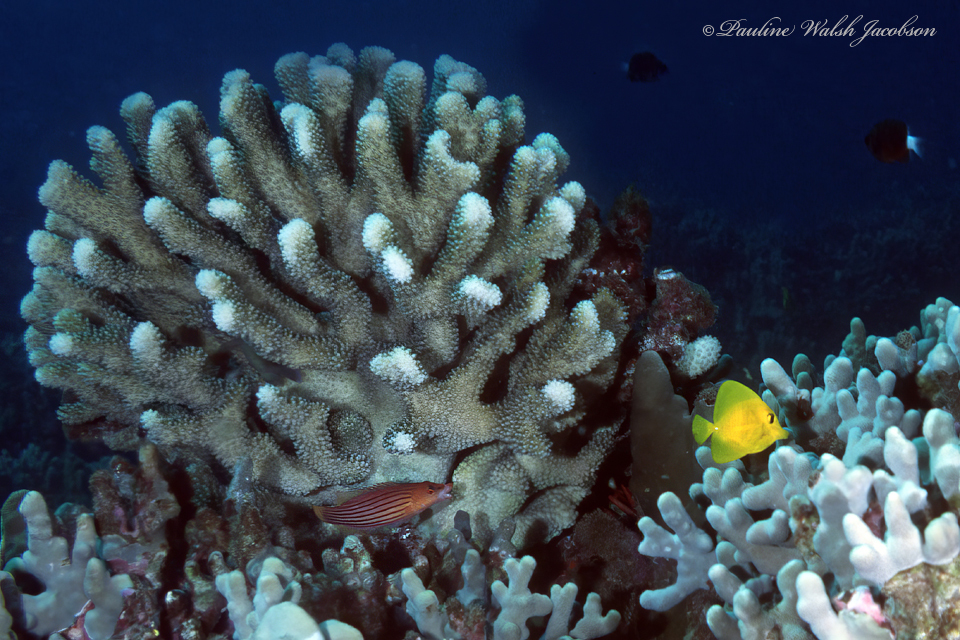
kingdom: Animalia
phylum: Chordata
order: Perciformes
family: Acanthuridae
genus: Zebrasoma
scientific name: Zebrasoma flavescens
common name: Yellow tang
